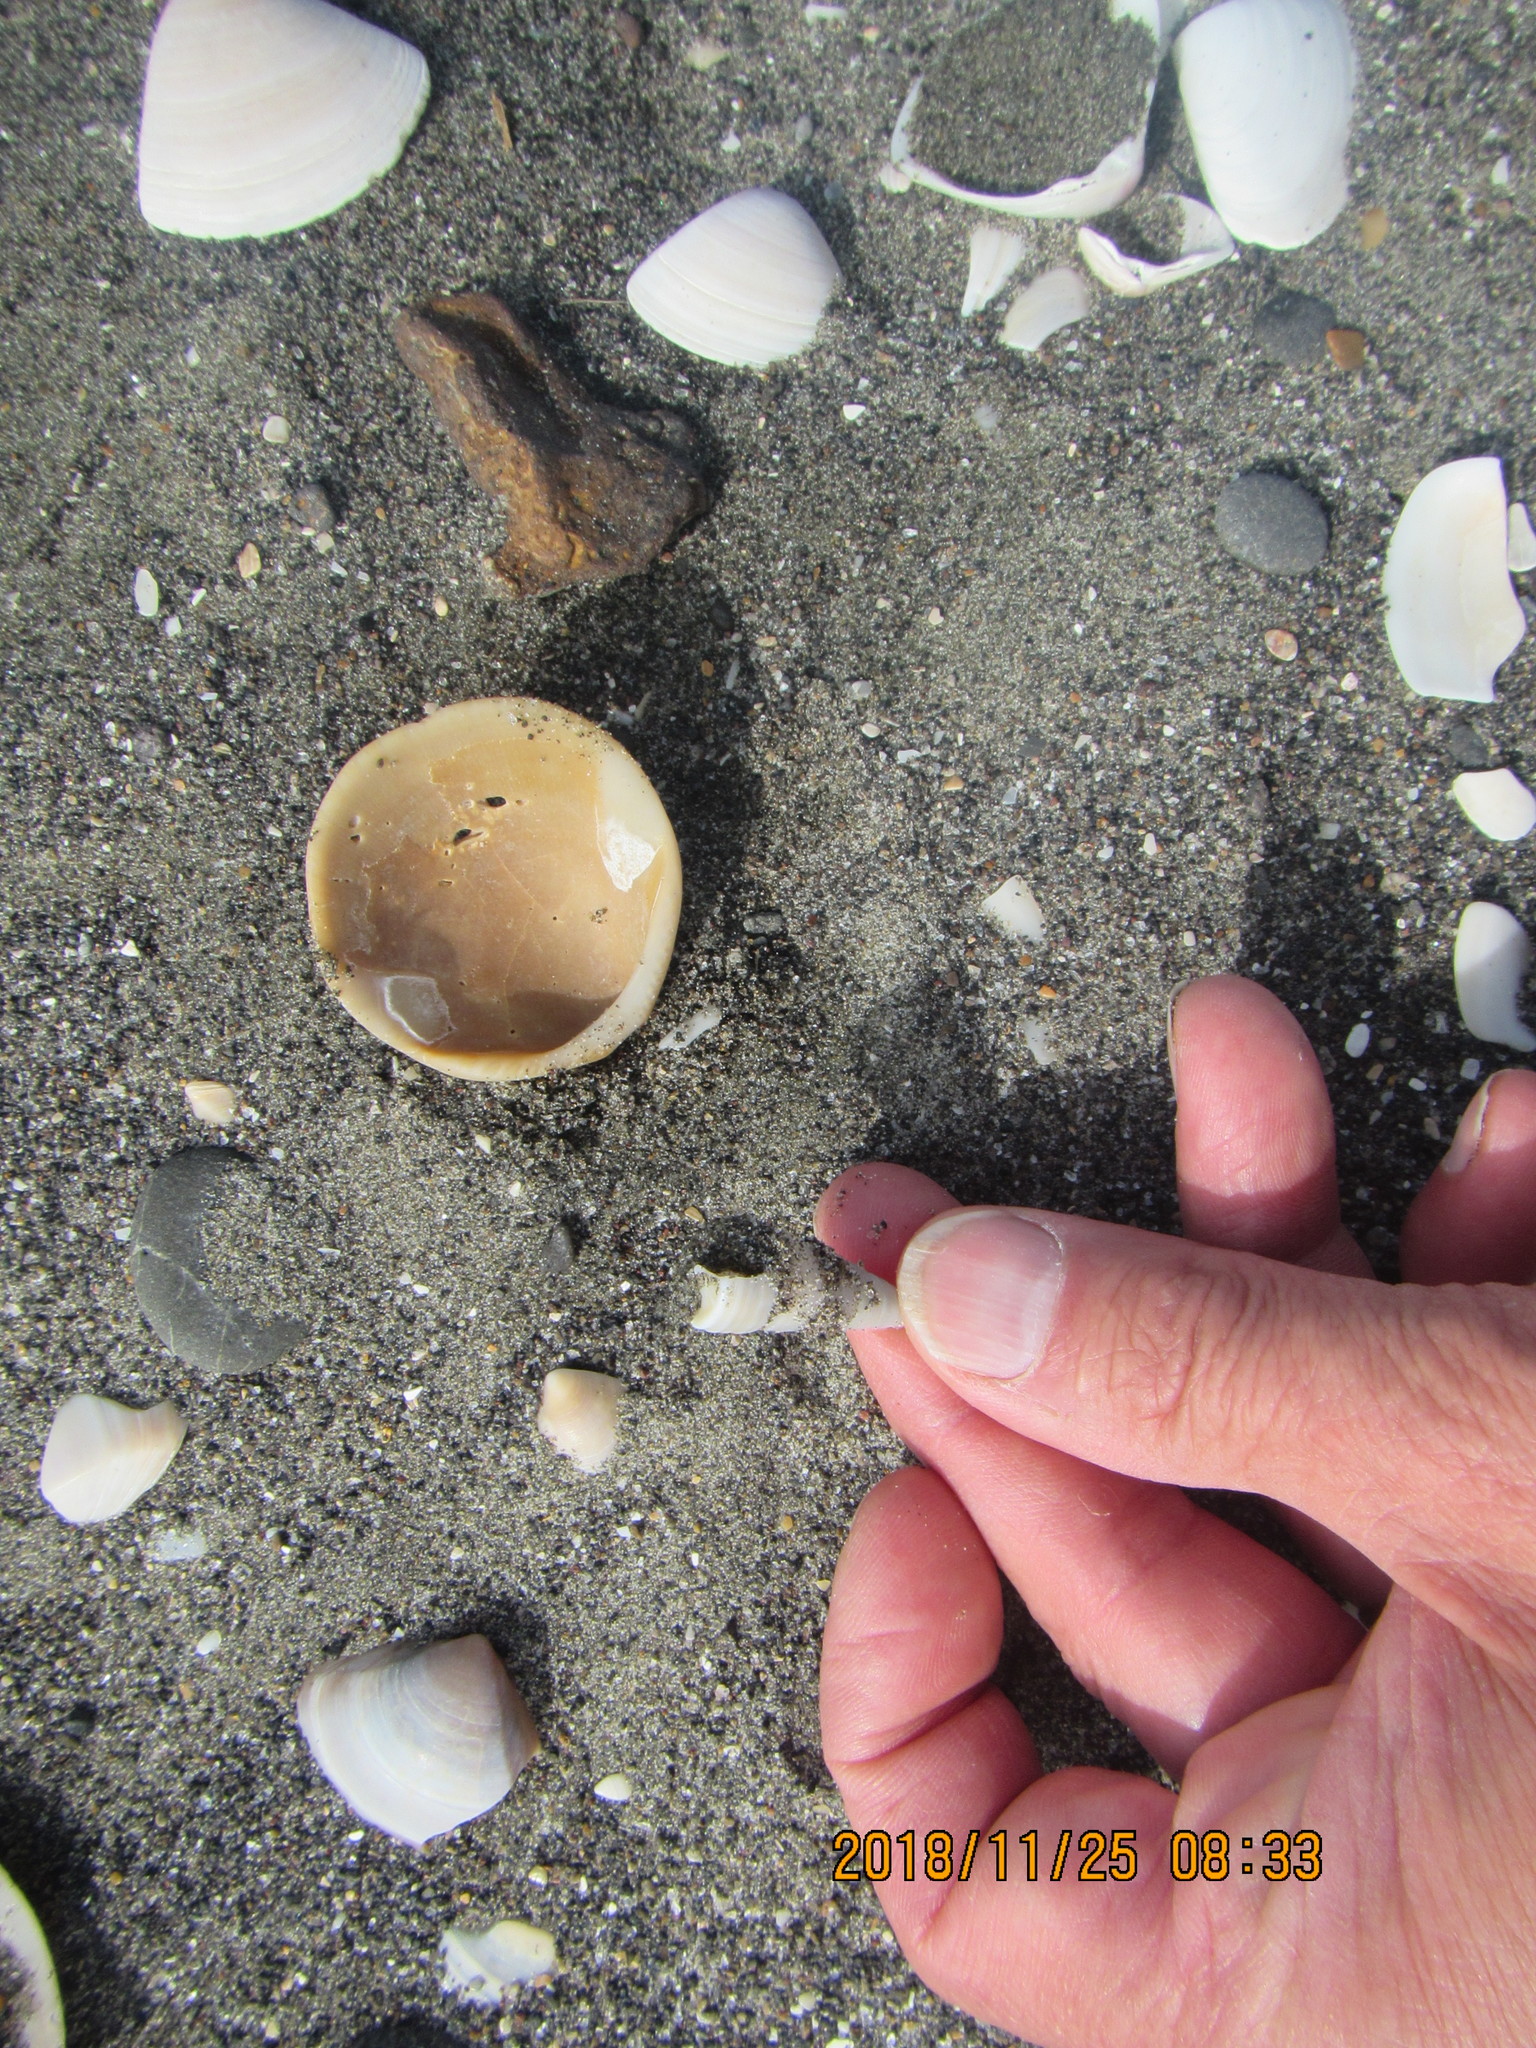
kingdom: Animalia
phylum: Mollusca
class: Bivalvia
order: Arcida
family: Glycymerididae
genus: Tucetona
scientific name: Tucetona laticostata
